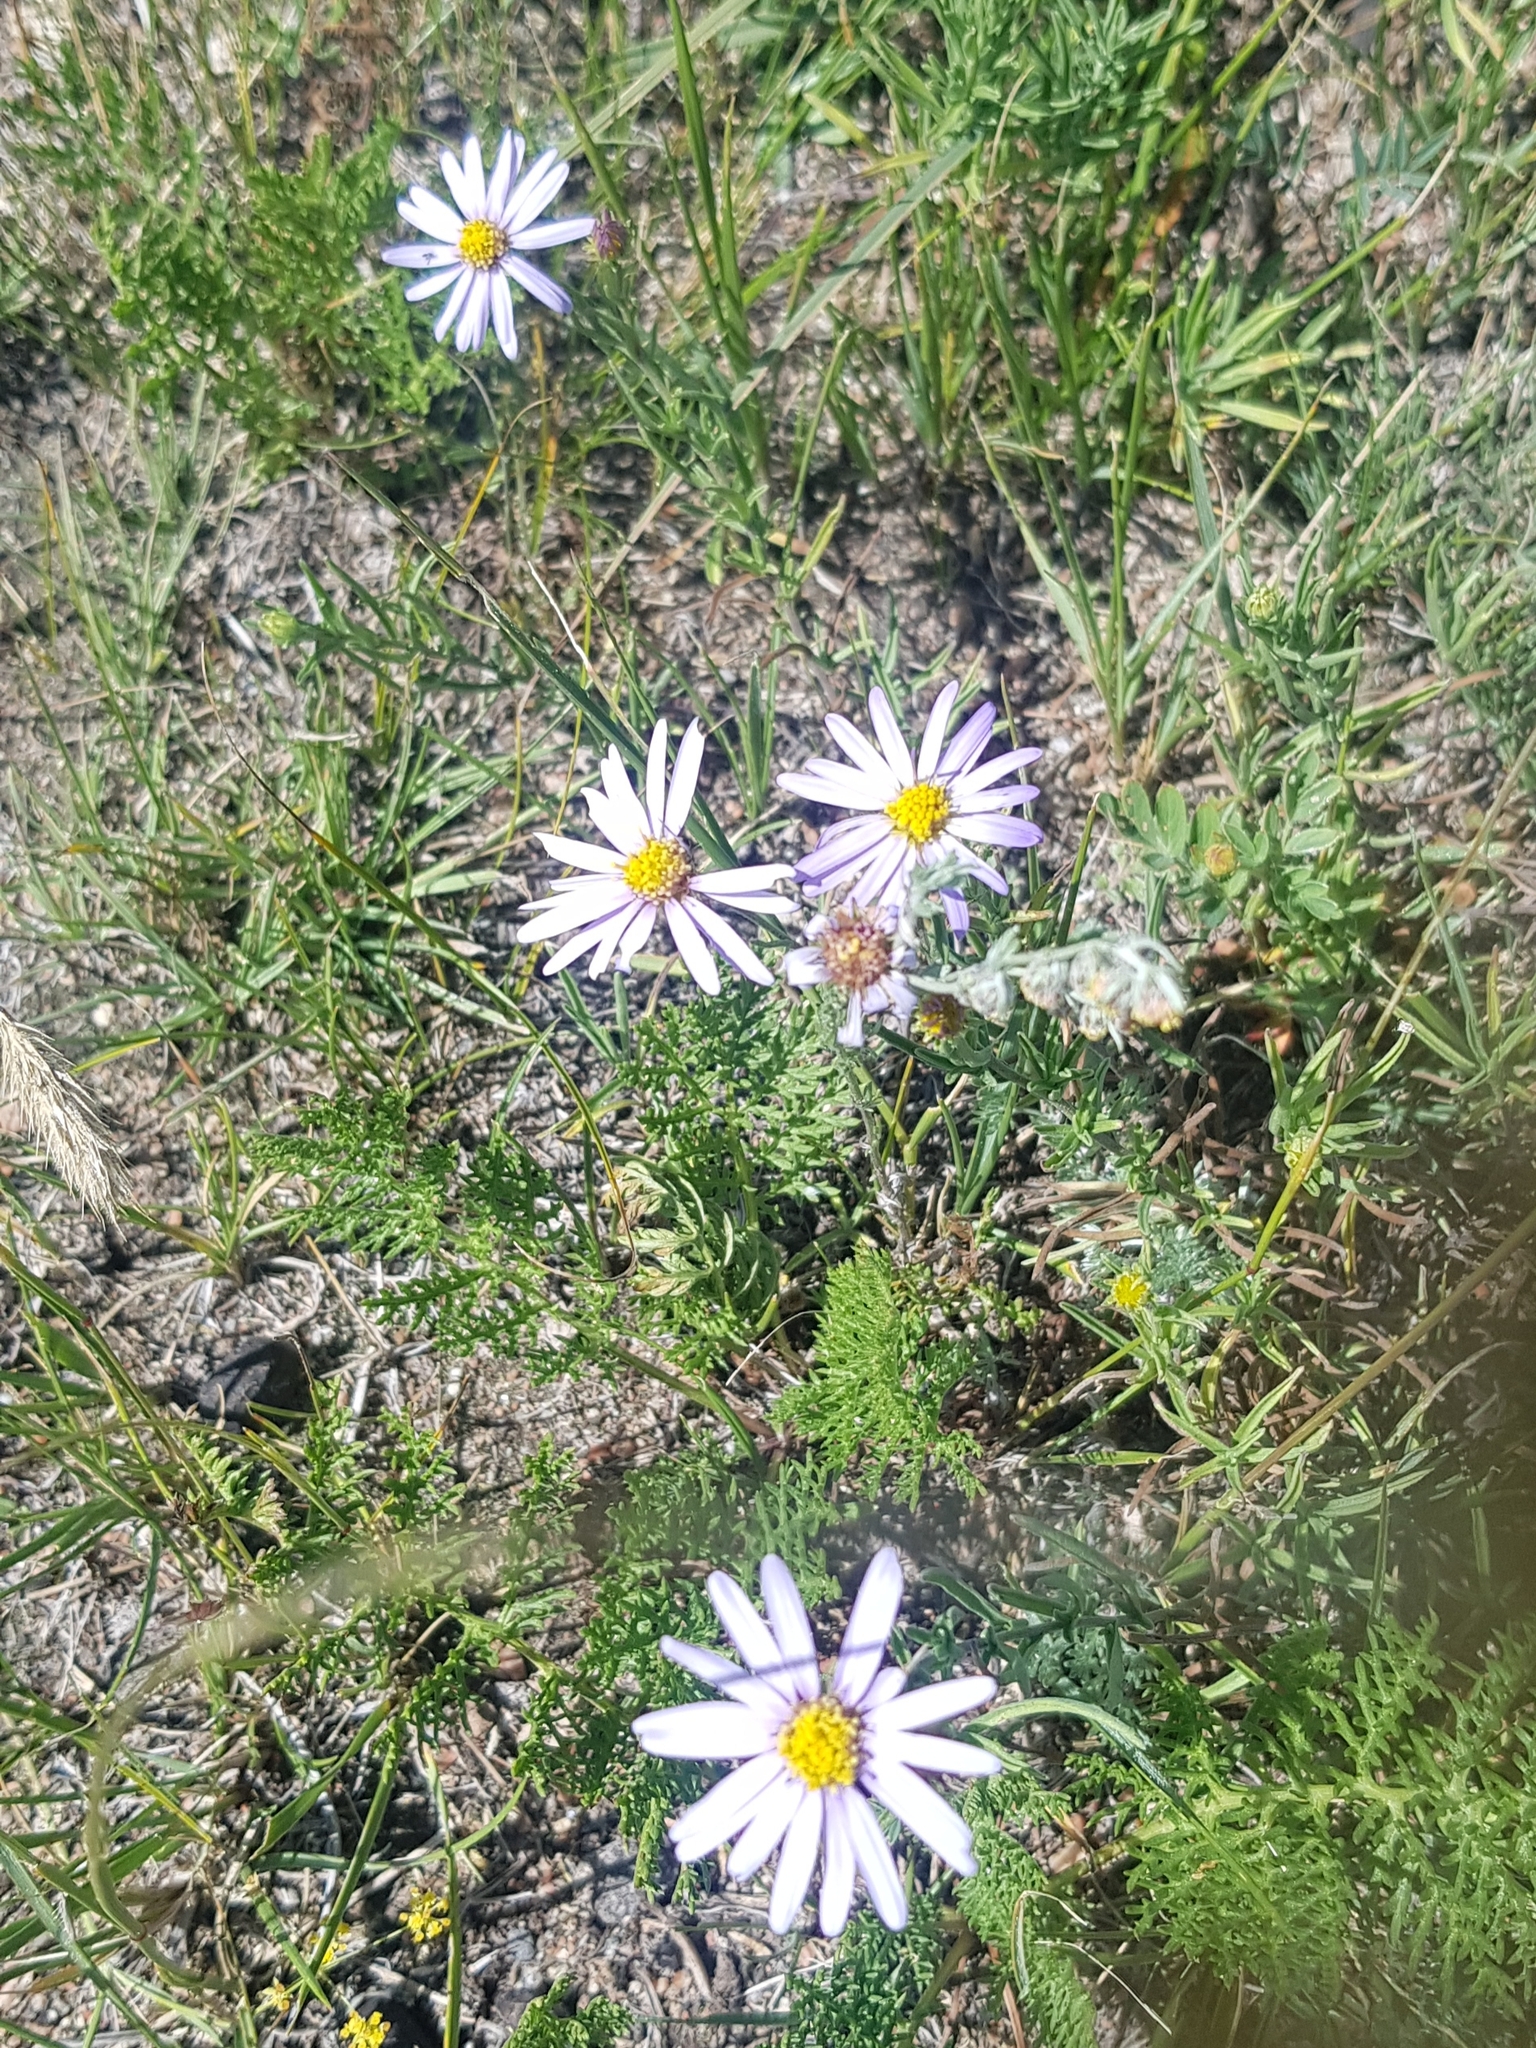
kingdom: Plantae
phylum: Tracheophyta
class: Magnoliopsida
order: Asterales
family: Asteraceae
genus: Heteropappus
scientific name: Heteropappus altaicus
